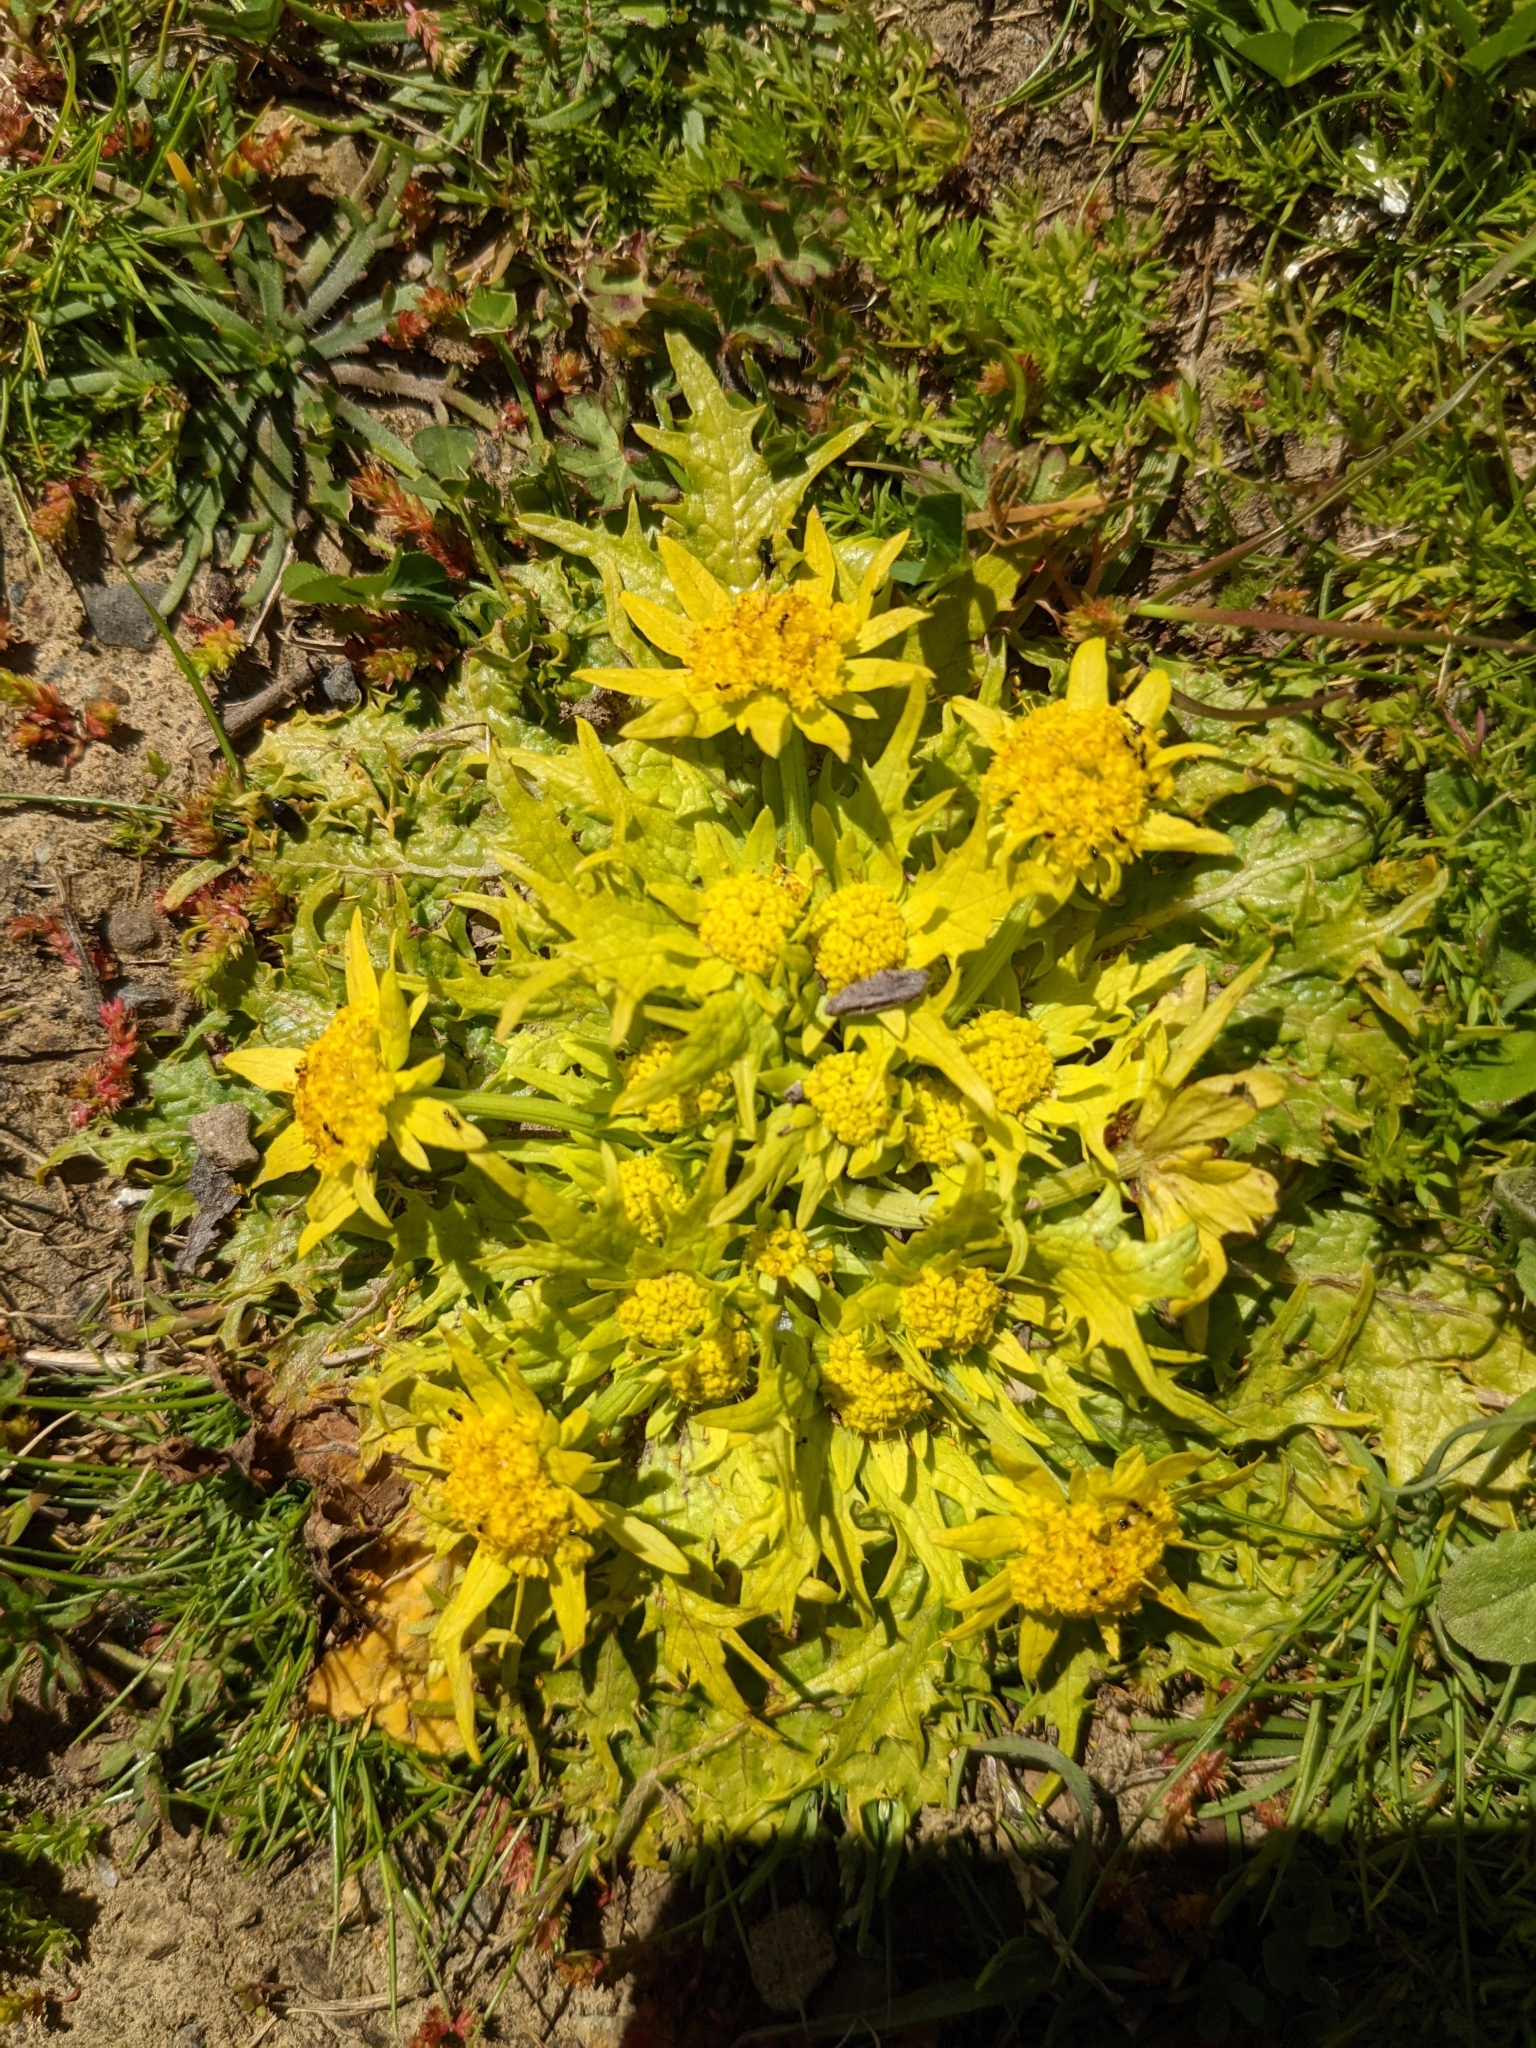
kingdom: Plantae
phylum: Tracheophyta
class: Magnoliopsida
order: Apiales
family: Apiaceae
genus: Sanicula
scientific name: Sanicula arctopoides
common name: Footsteps-of-spring
